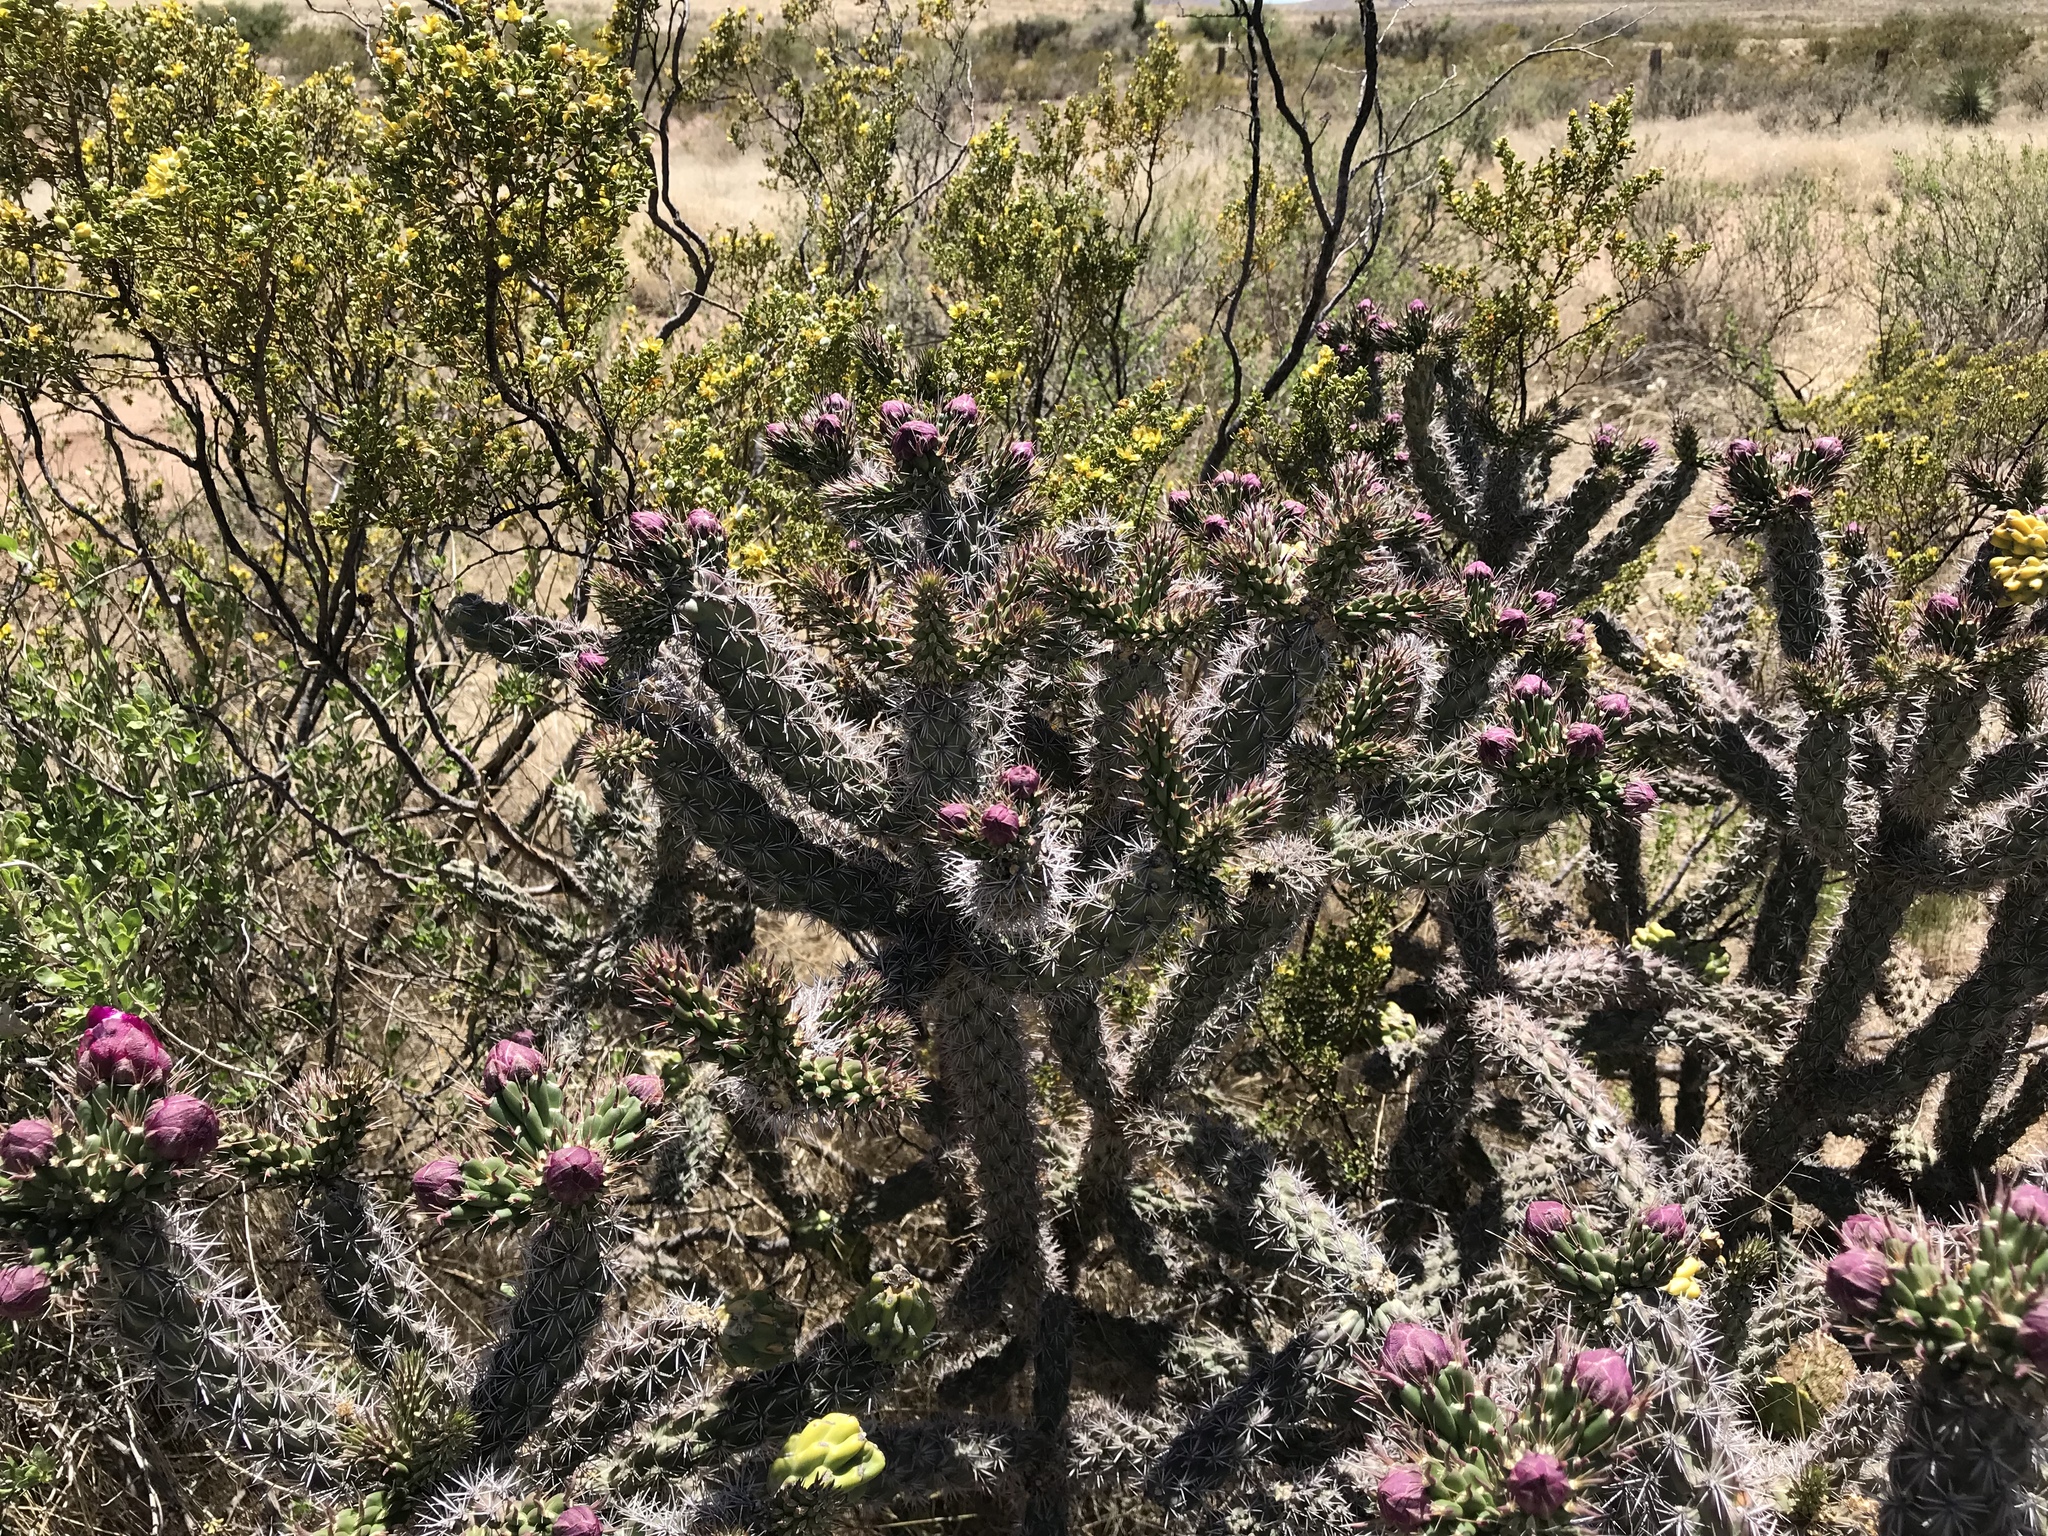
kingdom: Plantae
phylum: Tracheophyta
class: Magnoliopsida
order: Caryophyllales
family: Cactaceae
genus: Cylindropuntia
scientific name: Cylindropuntia imbricata
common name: Candelabrum cactus
